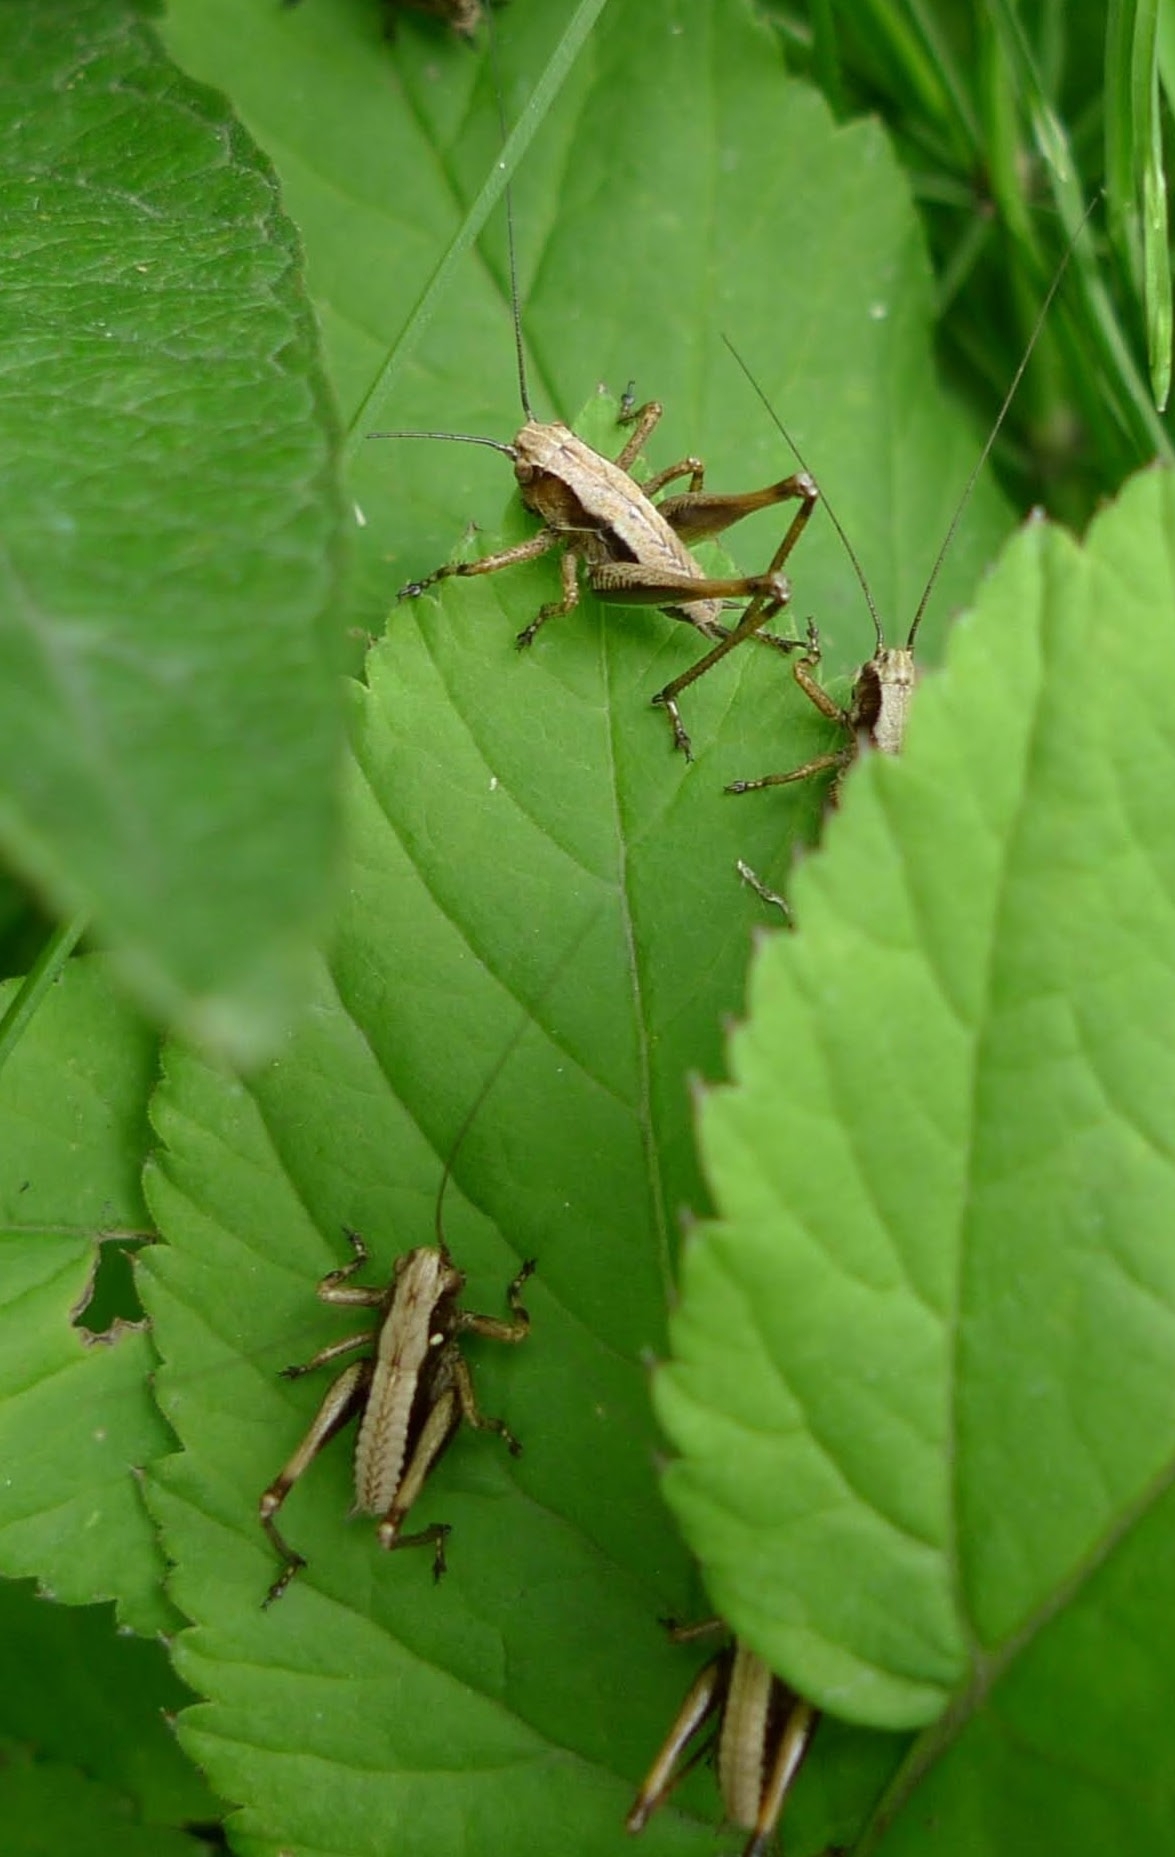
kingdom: Animalia
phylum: Arthropoda
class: Insecta
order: Orthoptera
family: Tettigoniidae
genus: Pholidoptera
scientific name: Pholidoptera griseoaptera
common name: Dark bush-cricket
